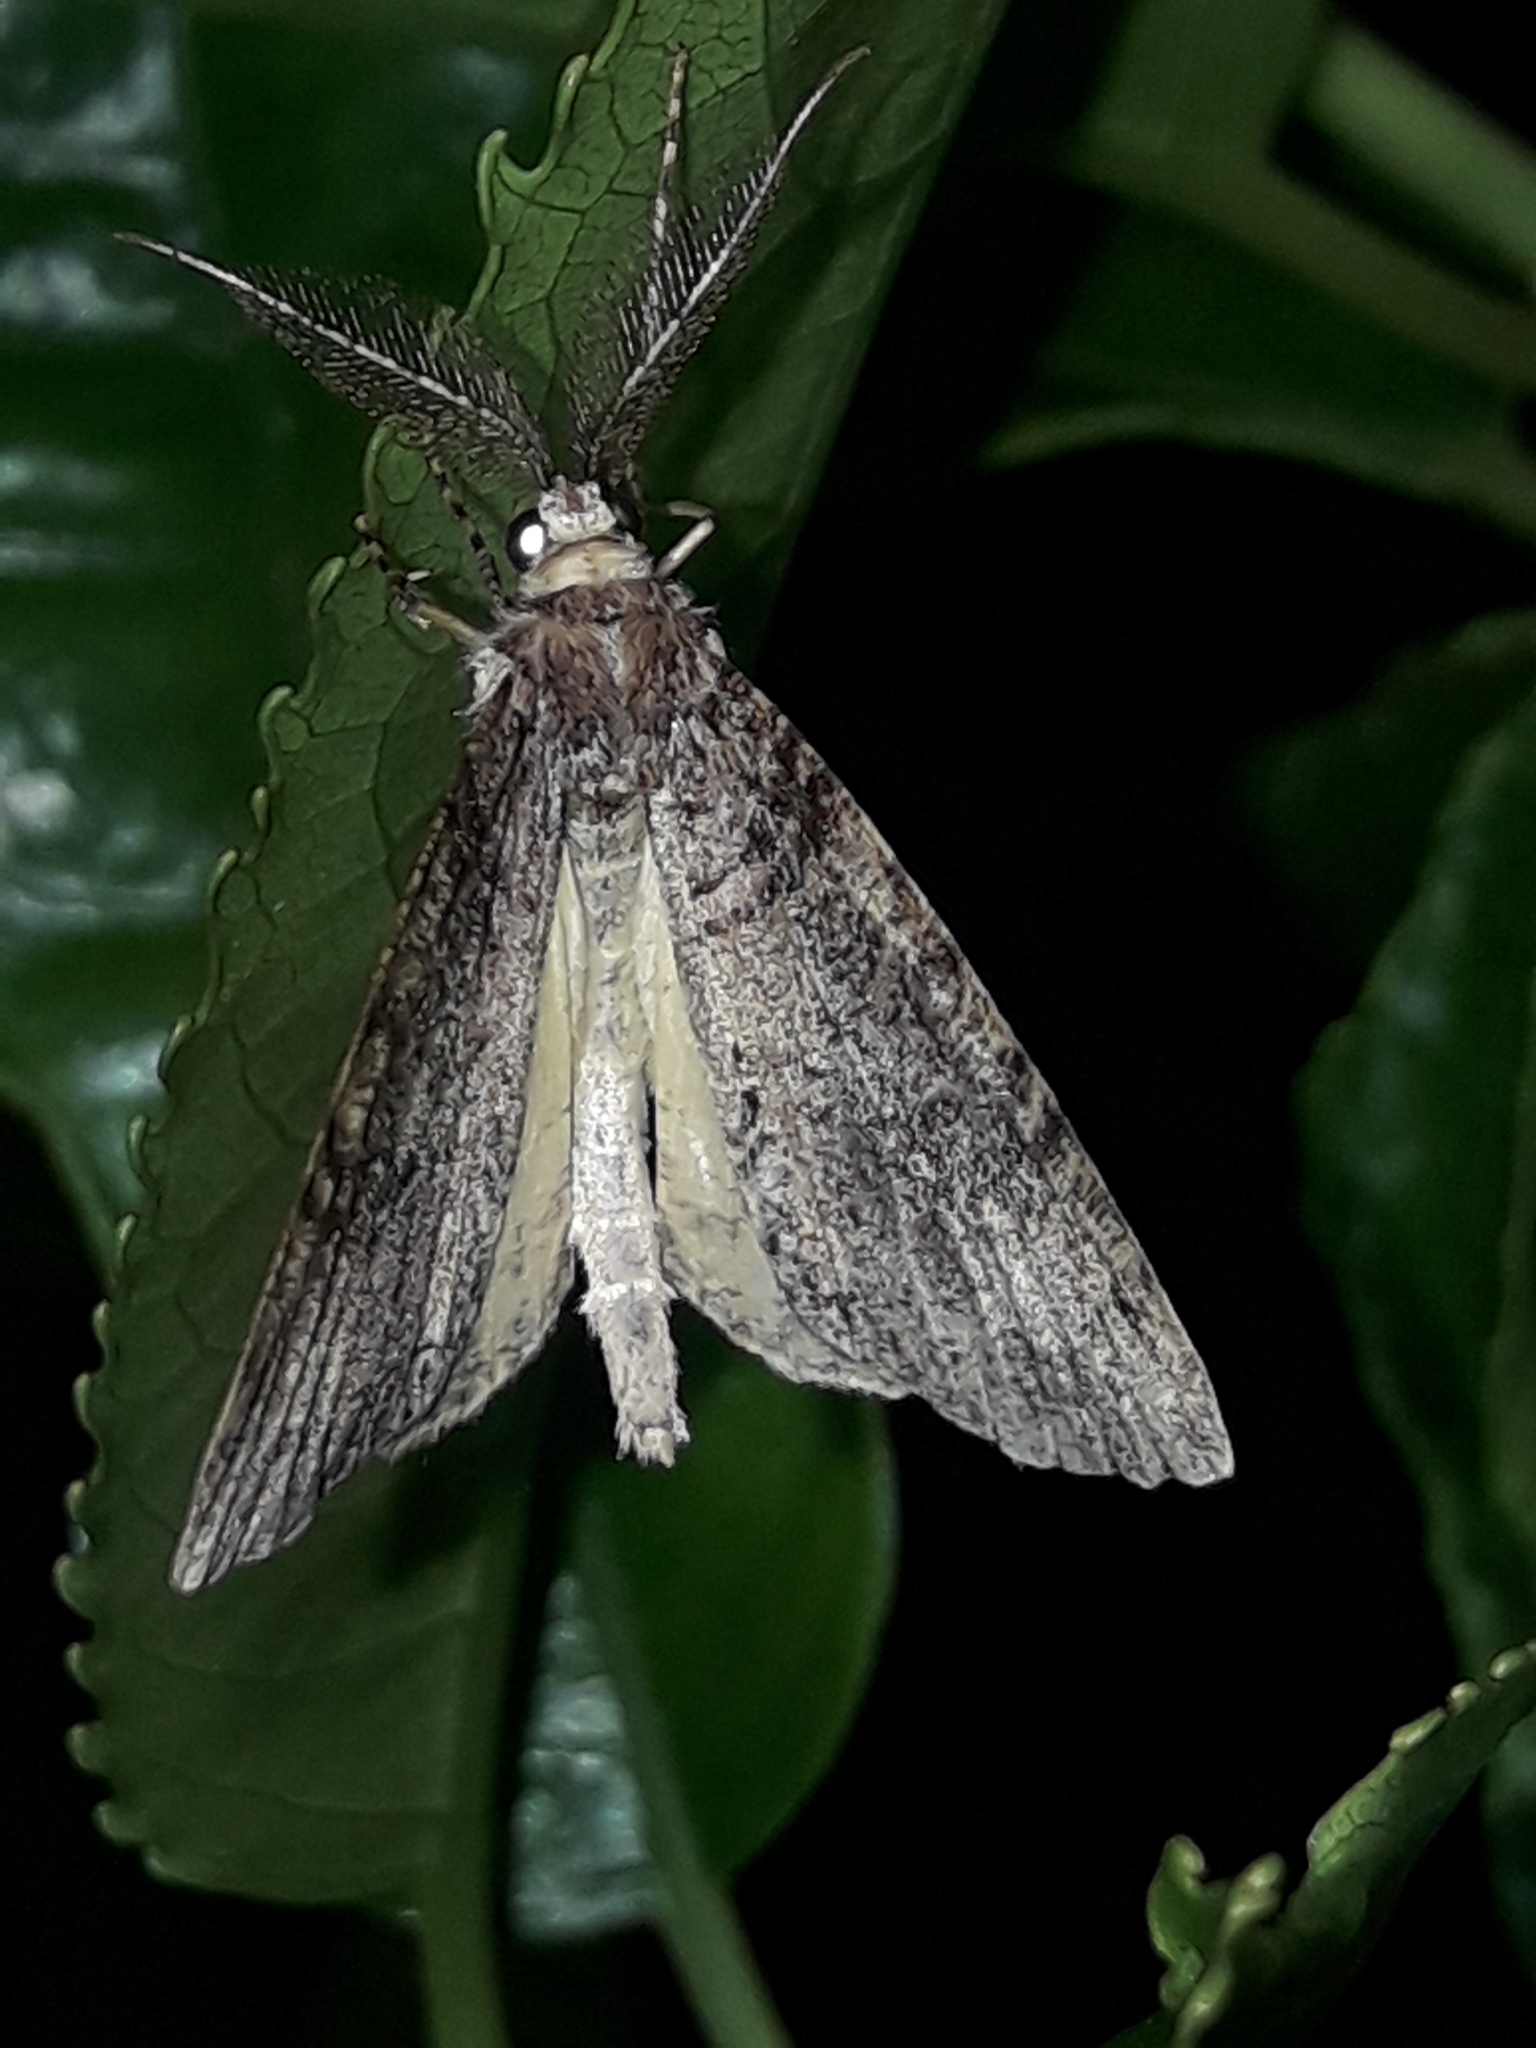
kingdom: Animalia
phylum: Arthropoda
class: Insecta
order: Lepidoptera
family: Geometridae
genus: Pseudocoremia
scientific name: Pseudocoremia suavis
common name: Common forest looper
